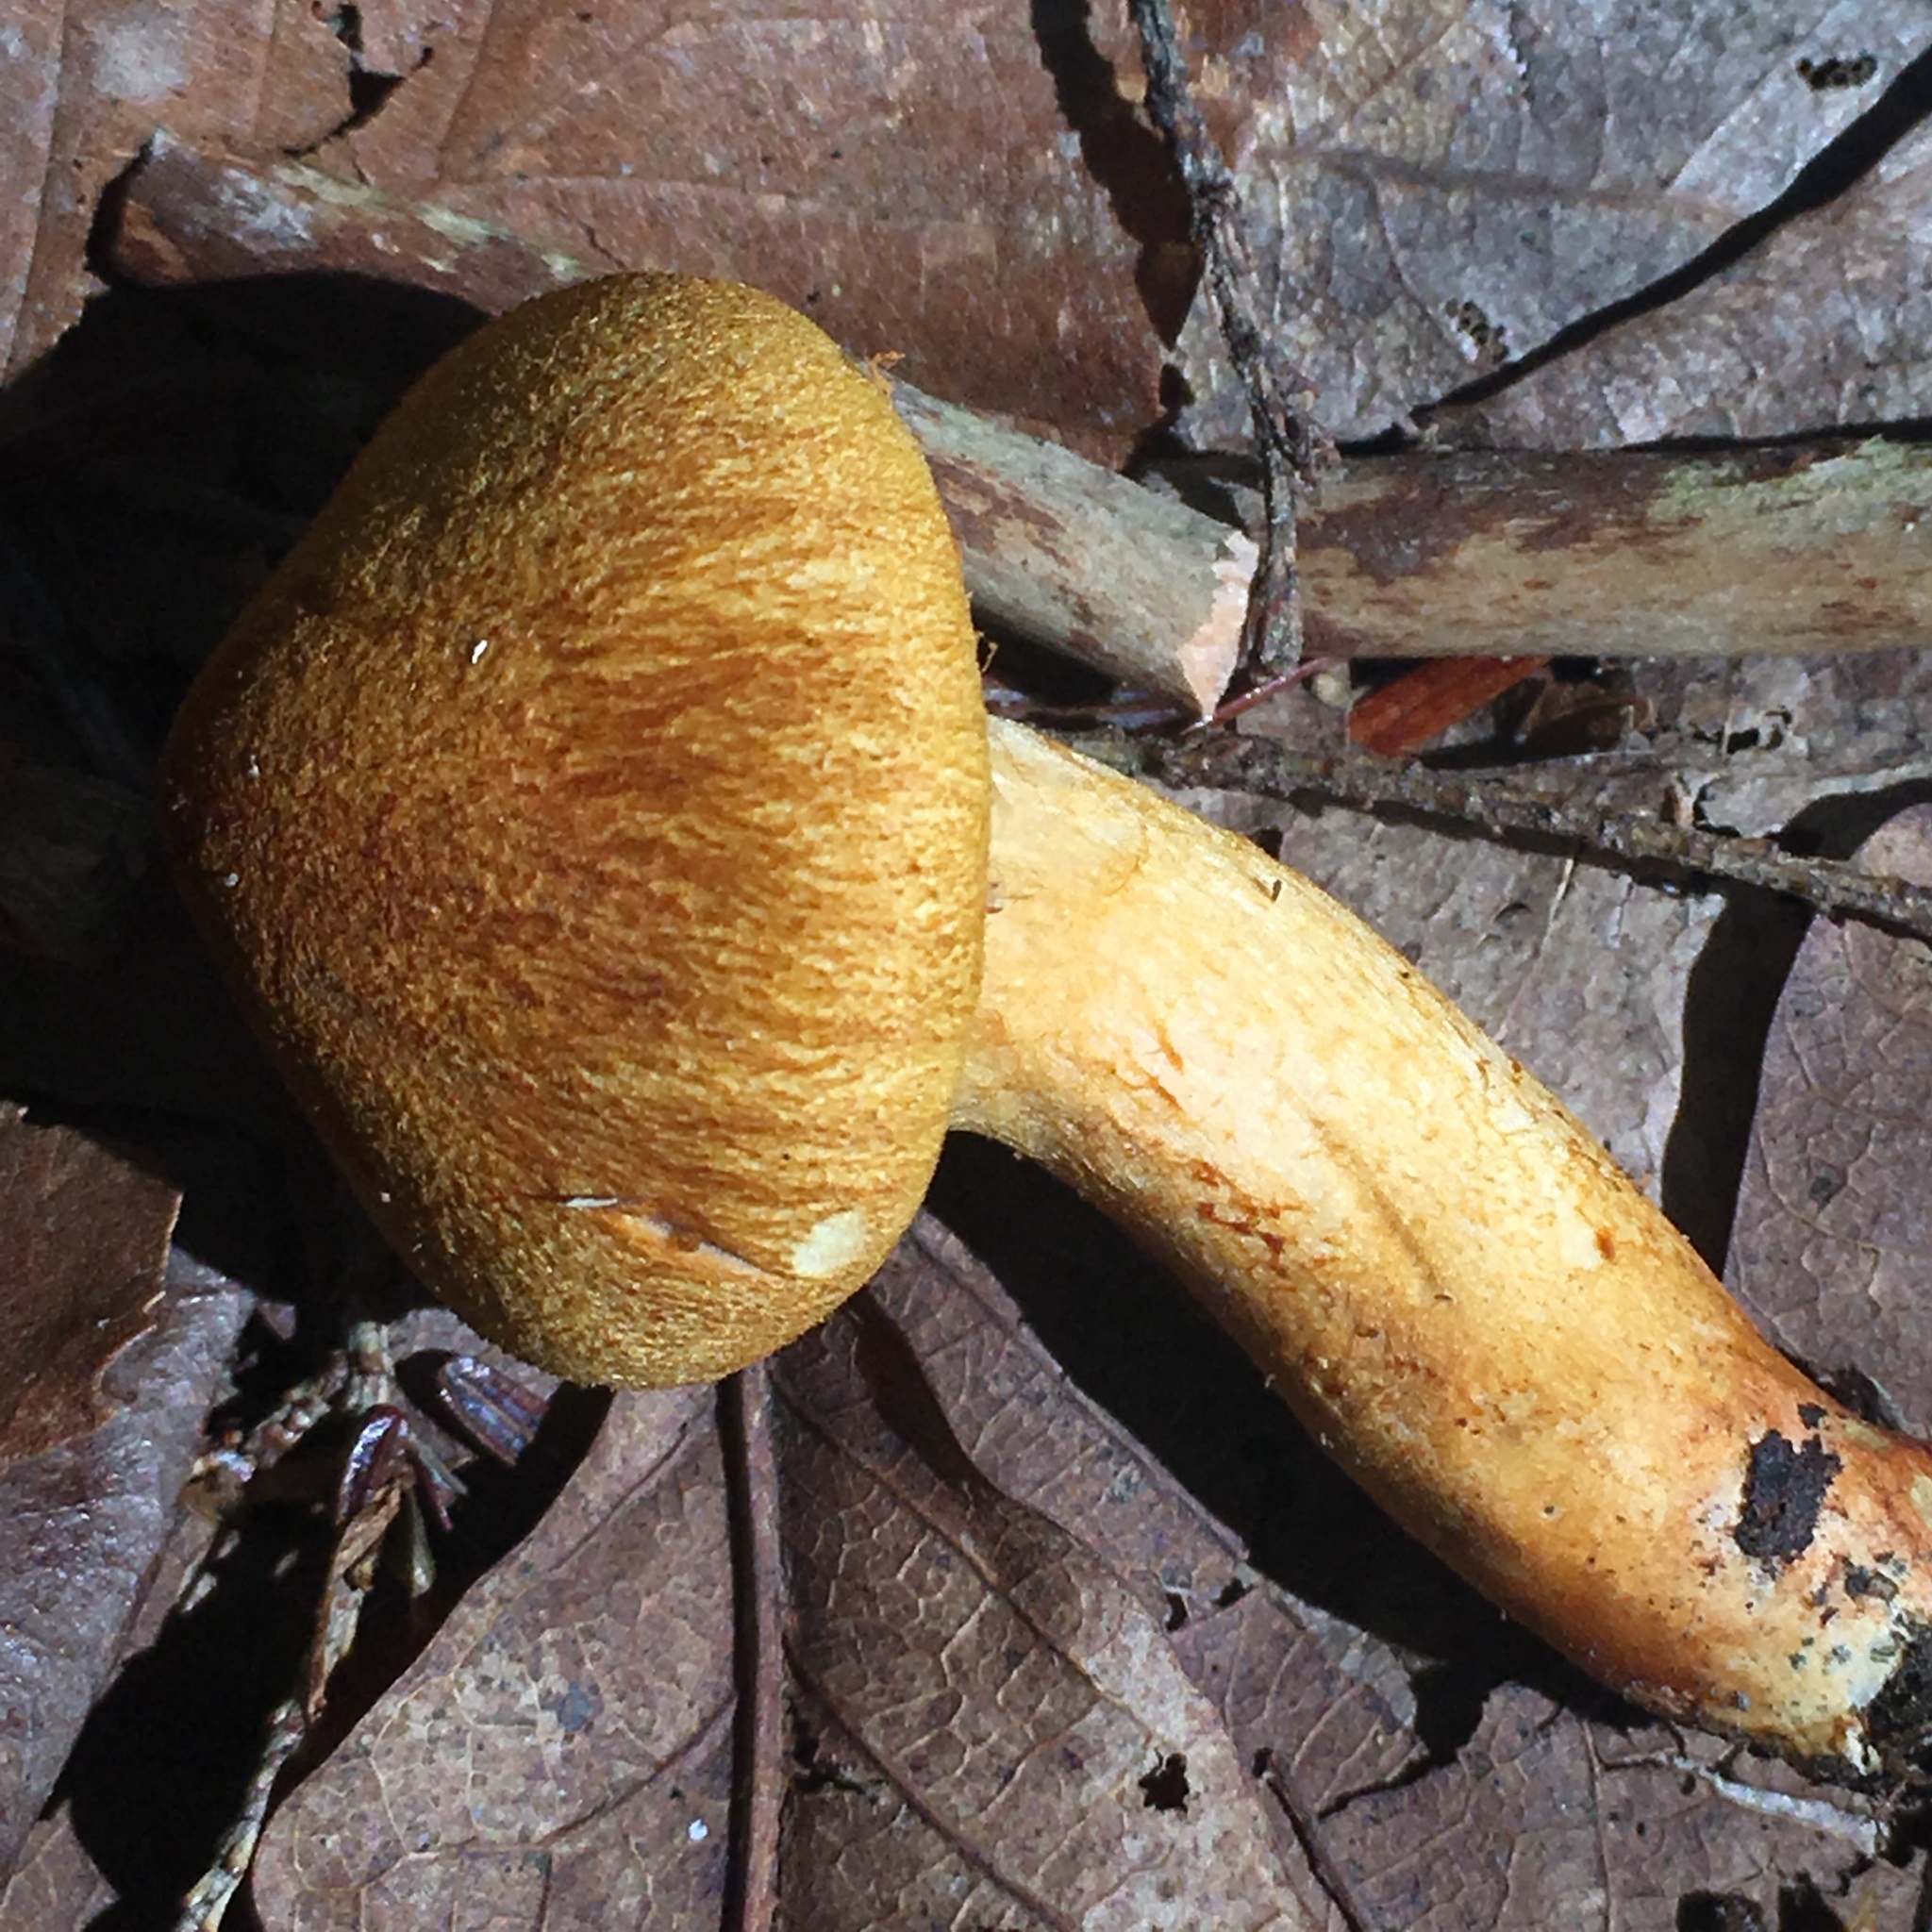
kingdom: Fungi
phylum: Basidiomycota
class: Agaricomycetes
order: Agaricales
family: Cortinariaceae
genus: Cortinarius
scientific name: Cortinarius semisanguineus
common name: Surprise webcap
